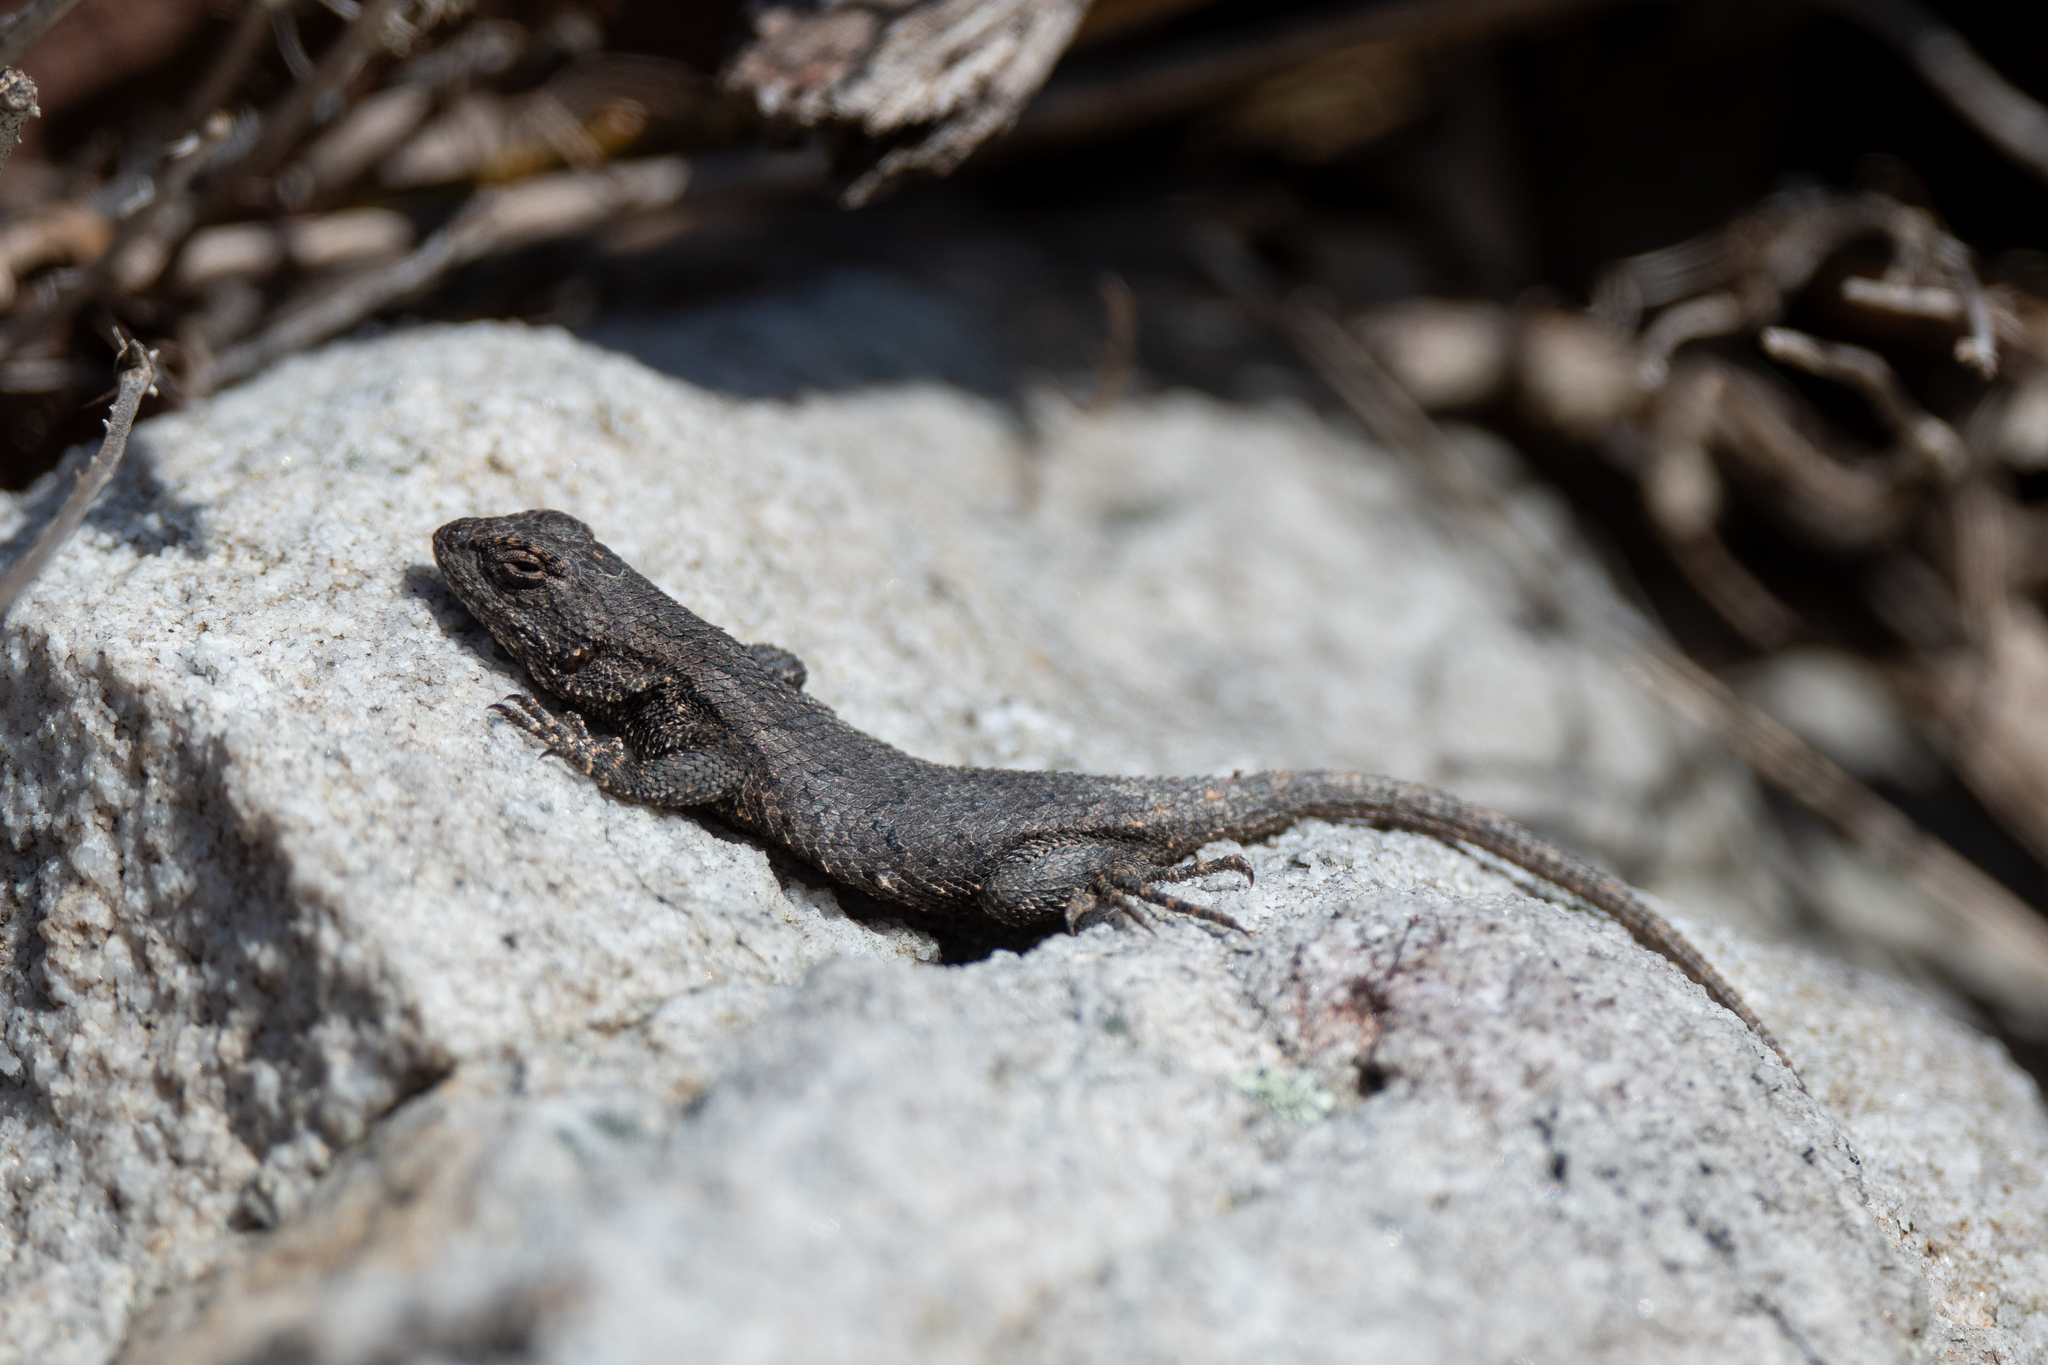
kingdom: Animalia
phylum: Chordata
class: Squamata
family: Phrynosomatidae
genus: Sceloporus
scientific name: Sceloporus undulatus
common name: Eastern fence lizard
